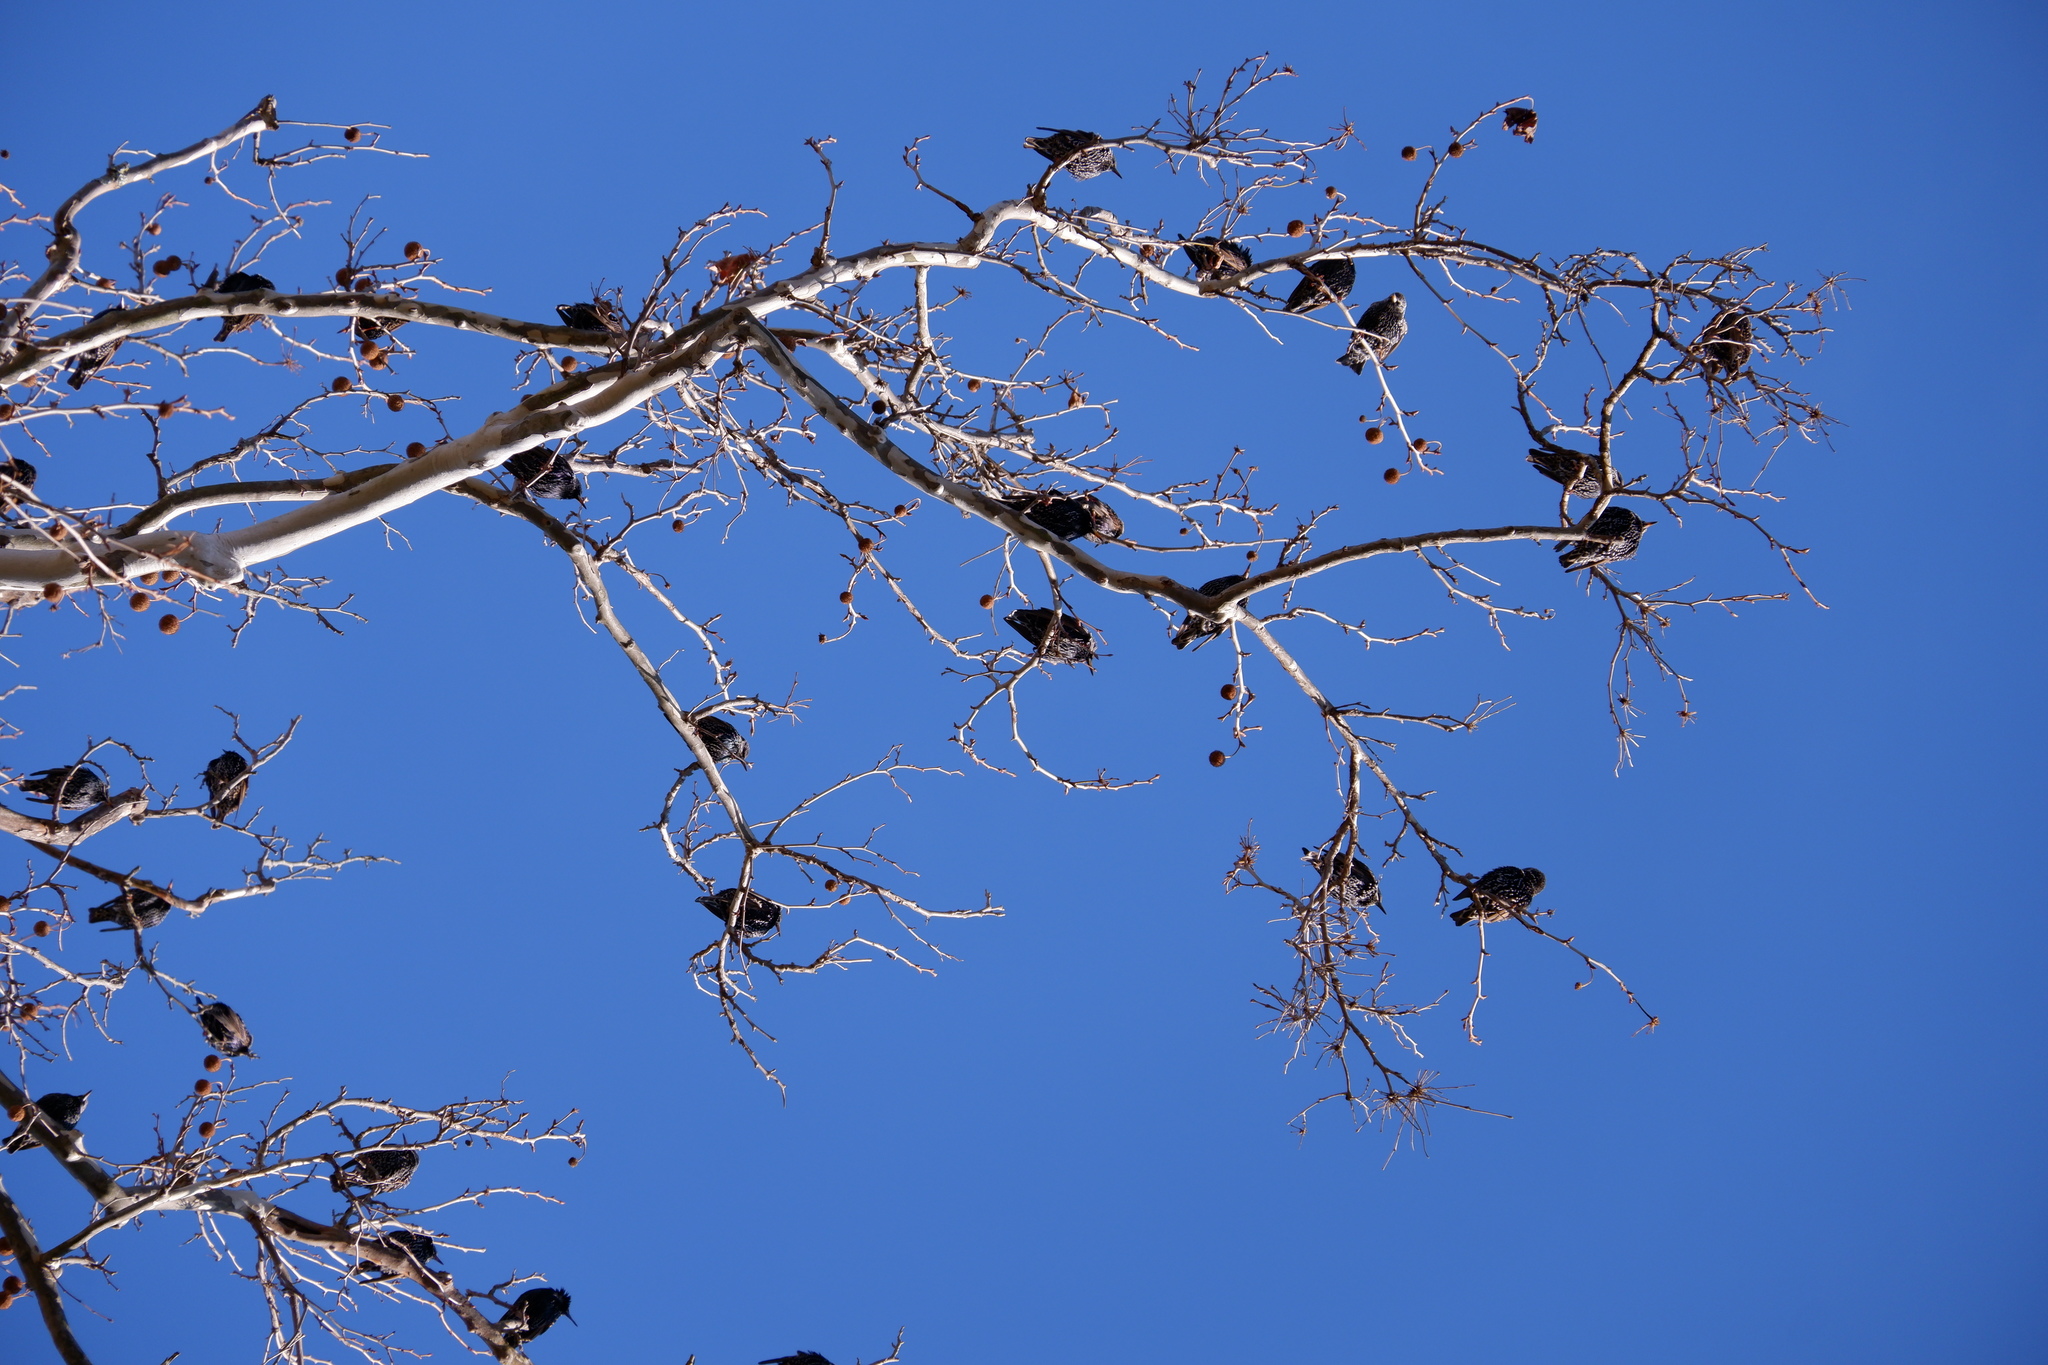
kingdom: Animalia
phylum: Chordata
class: Aves
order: Passeriformes
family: Sturnidae
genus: Sturnus
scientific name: Sturnus vulgaris
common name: Common starling
